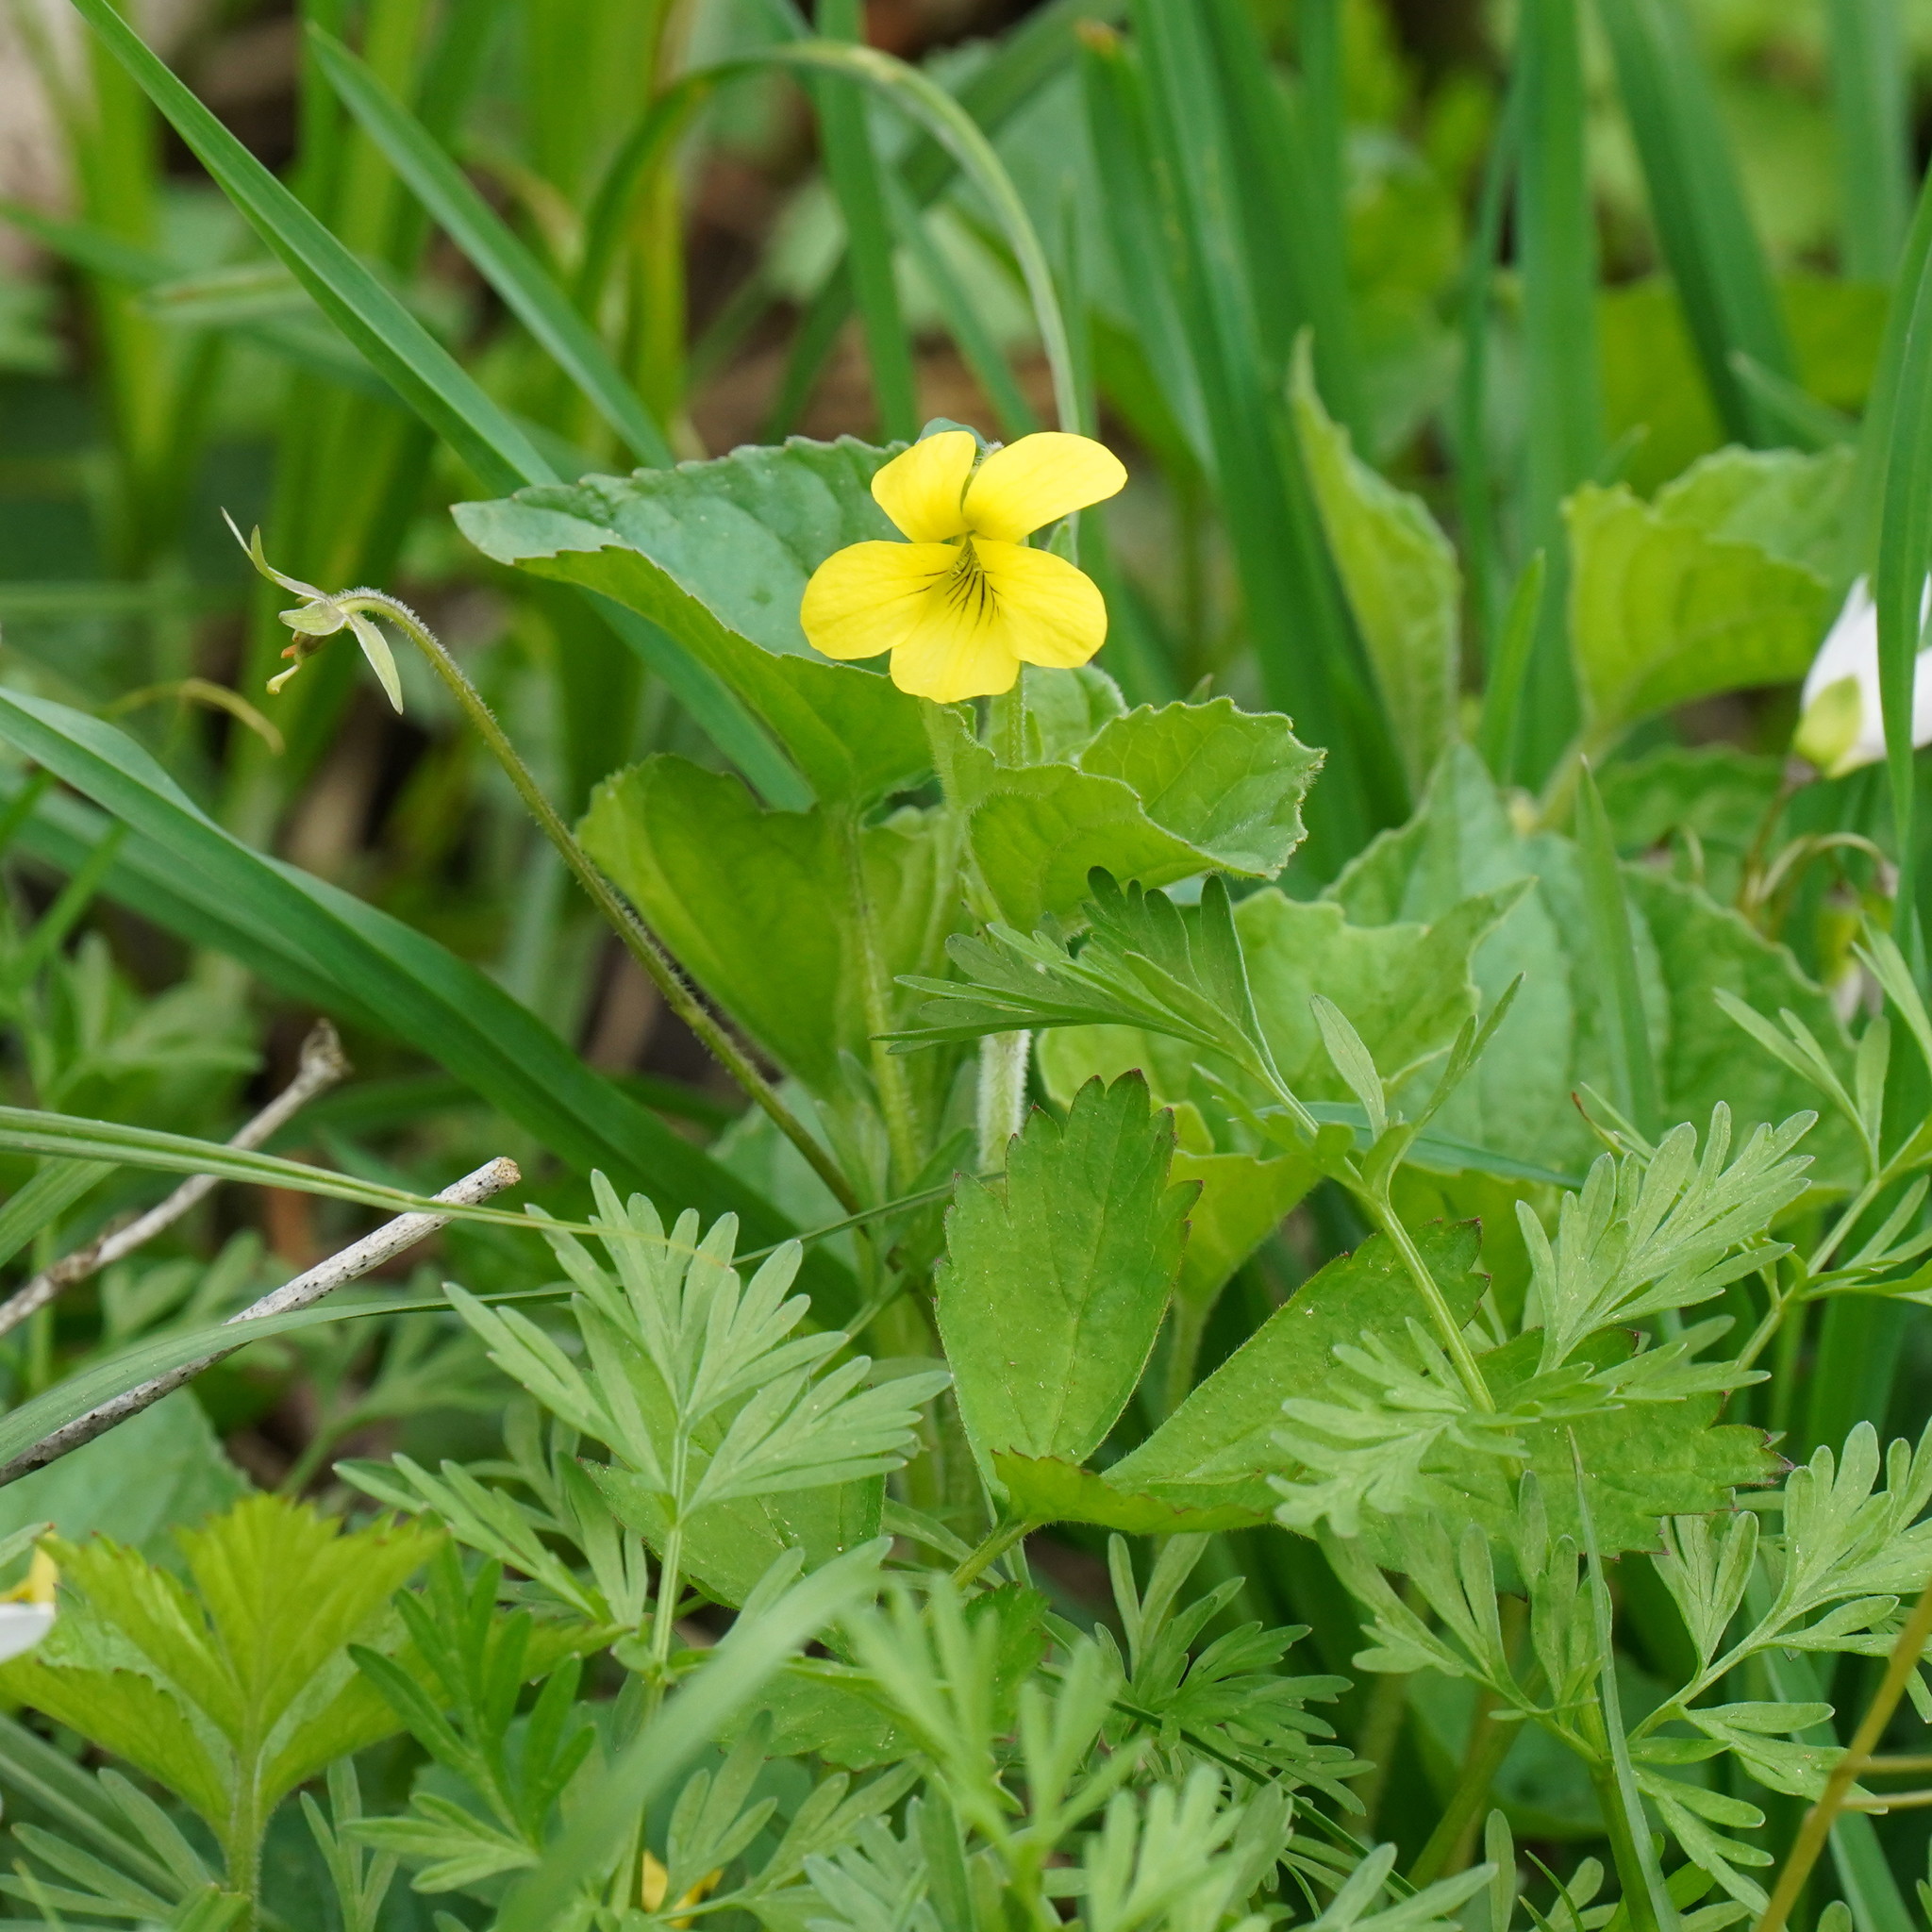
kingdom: Plantae
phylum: Tracheophyta
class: Magnoliopsida
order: Malpighiales
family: Violaceae
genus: Viola
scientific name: Viola eriocarpa
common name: Smooth yellow violet
